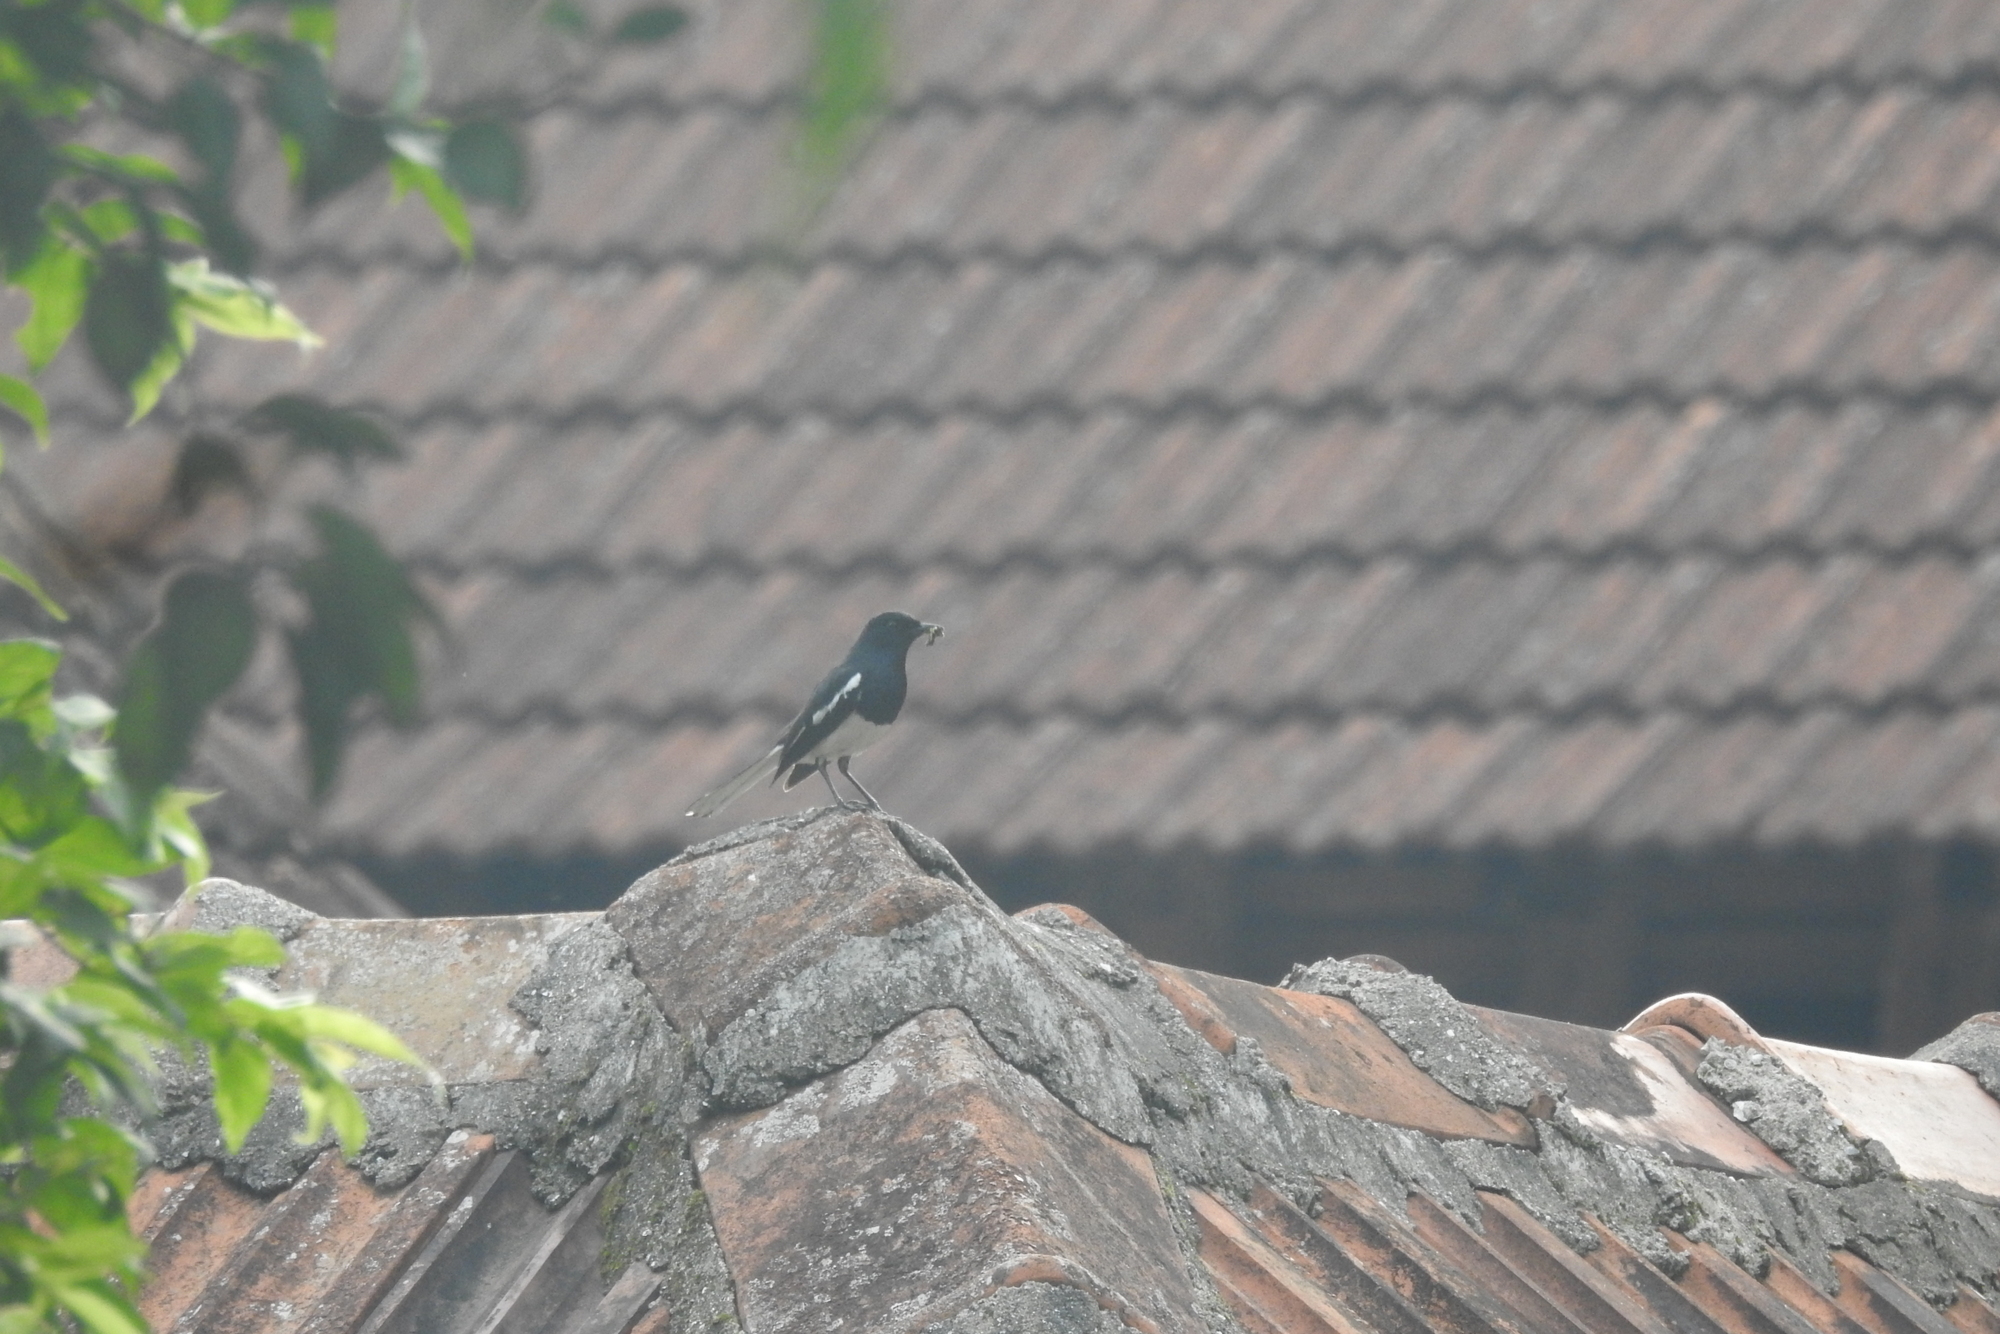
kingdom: Animalia
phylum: Chordata
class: Aves
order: Passeriformes
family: Muscicapidae
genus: Copsychus
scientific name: Copsychus saularis
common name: Oriental magpie-robin
